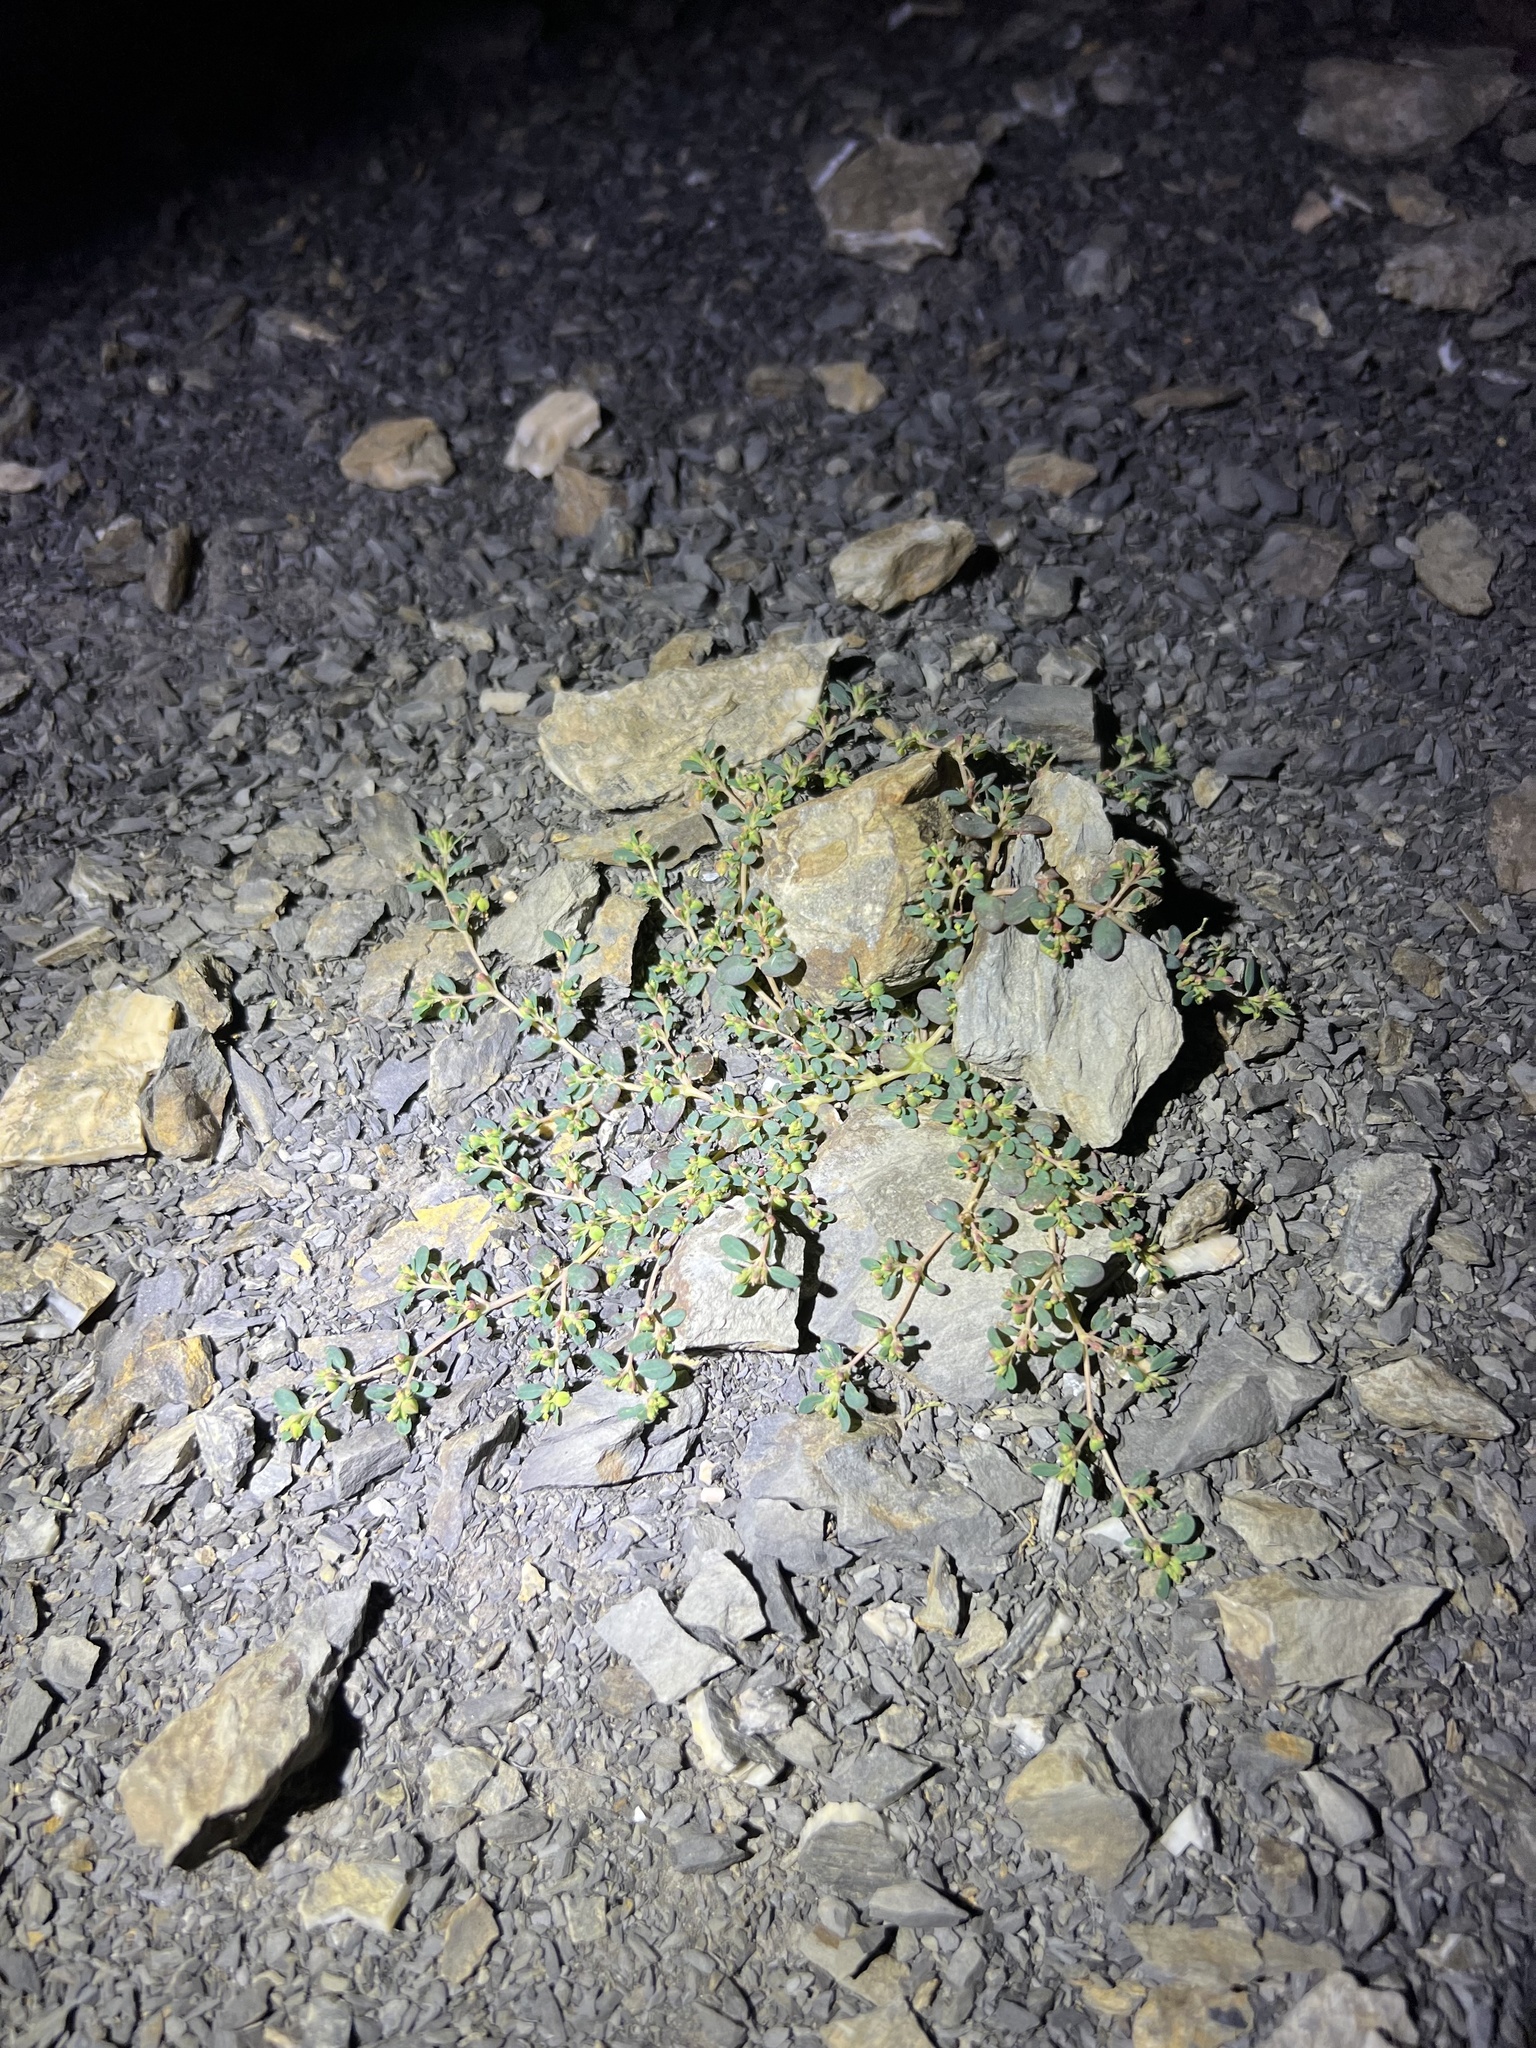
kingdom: Plantae
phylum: Tracheophyta
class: Magnoliopsida
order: Malpighiales
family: Euphorbiaceae
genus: Euphorbia
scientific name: Euphorbia cryptorubra
